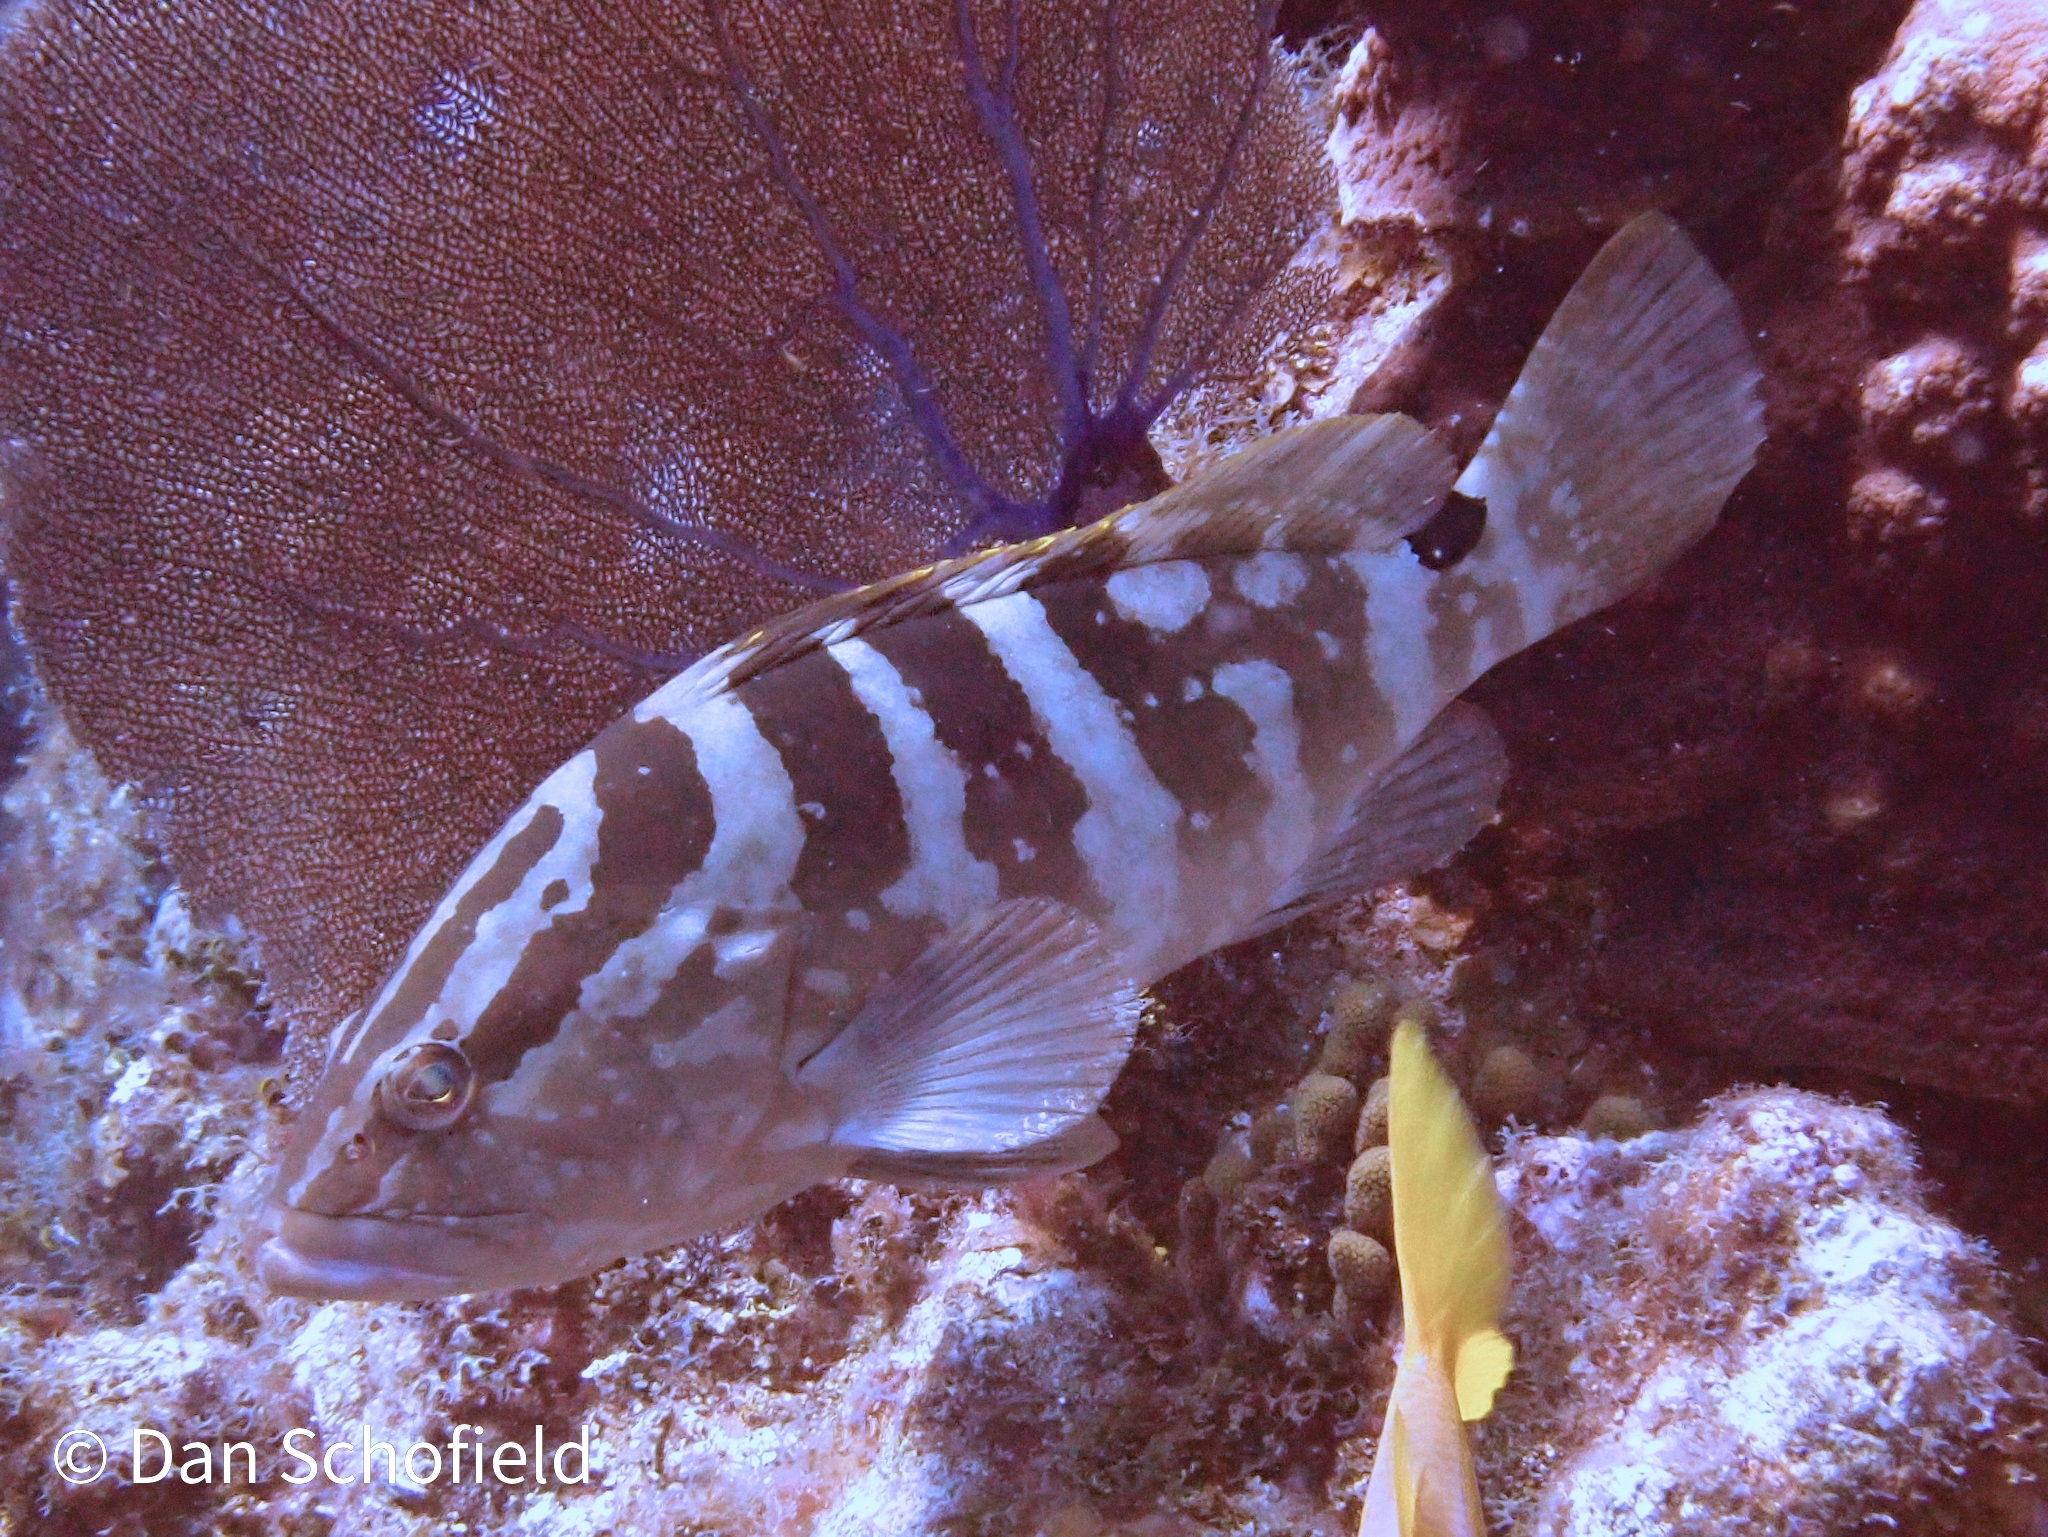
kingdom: Animalia
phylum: Chordata
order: Perciformes
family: Serranidae
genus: Epinephelus
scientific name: Epinephelus striatus
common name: Nassau grouper
